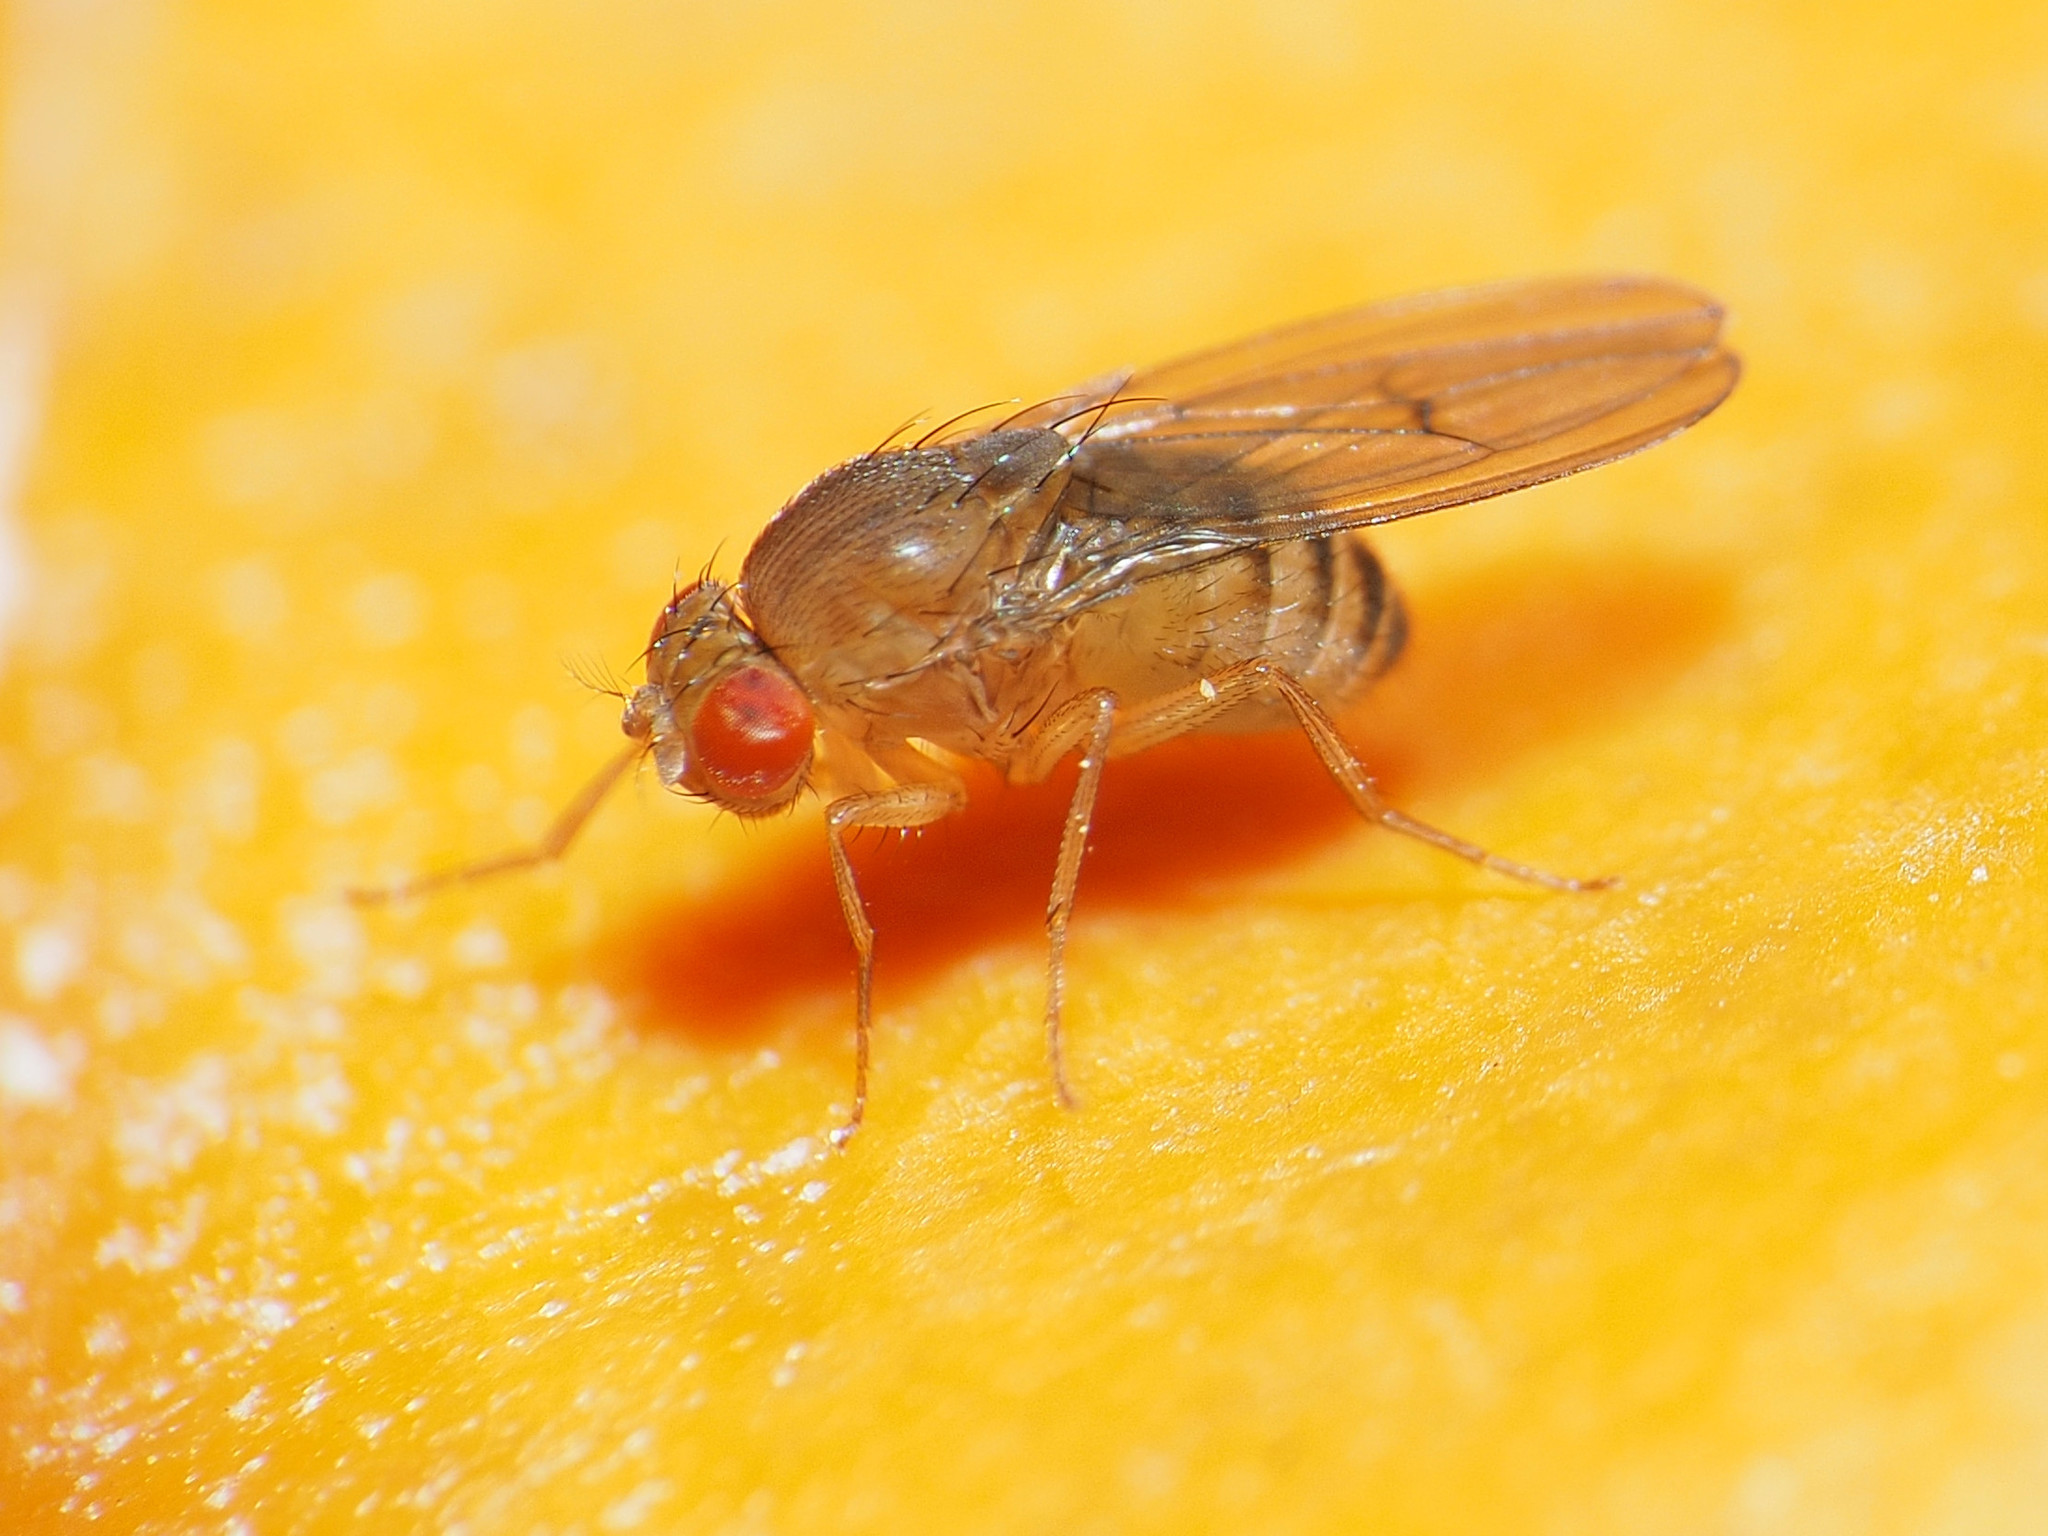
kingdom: Animalia
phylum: Arthropoda
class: Insecta
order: Diptera
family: Drosophilidae
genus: Drosophila
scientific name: Drosophila immigrans
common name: Pomace fly
